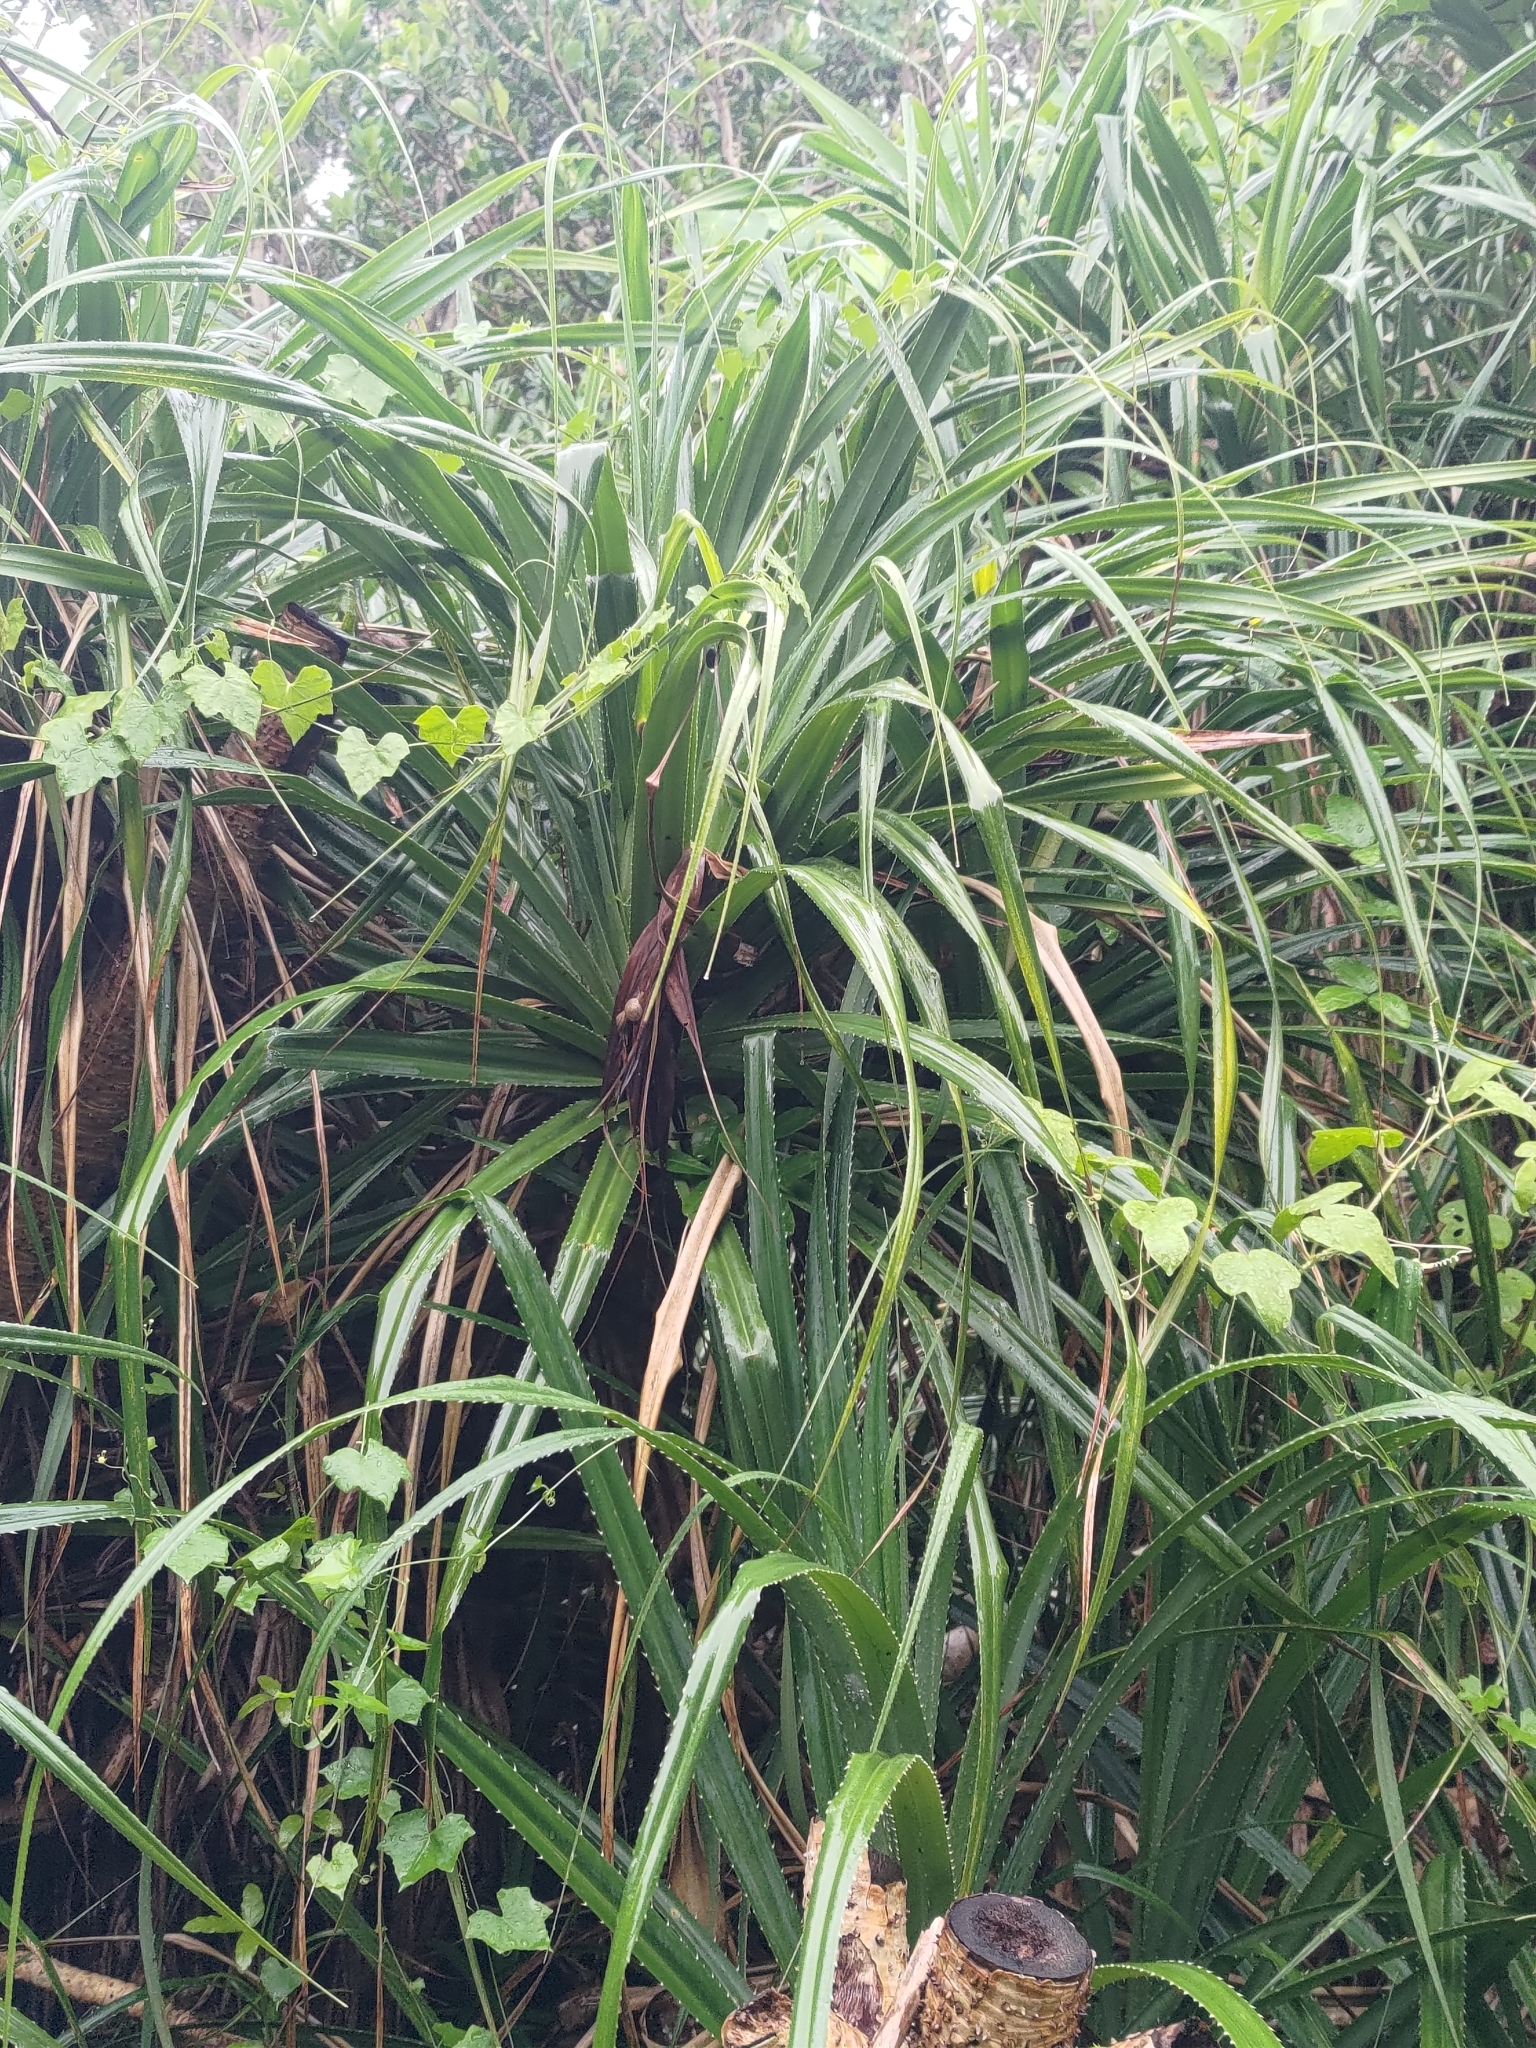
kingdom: Plantae
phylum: Tracheophyta
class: Liliopsida
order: Pandanales
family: Pandanaceae
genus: Pandanus
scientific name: Pandanus odorifer
